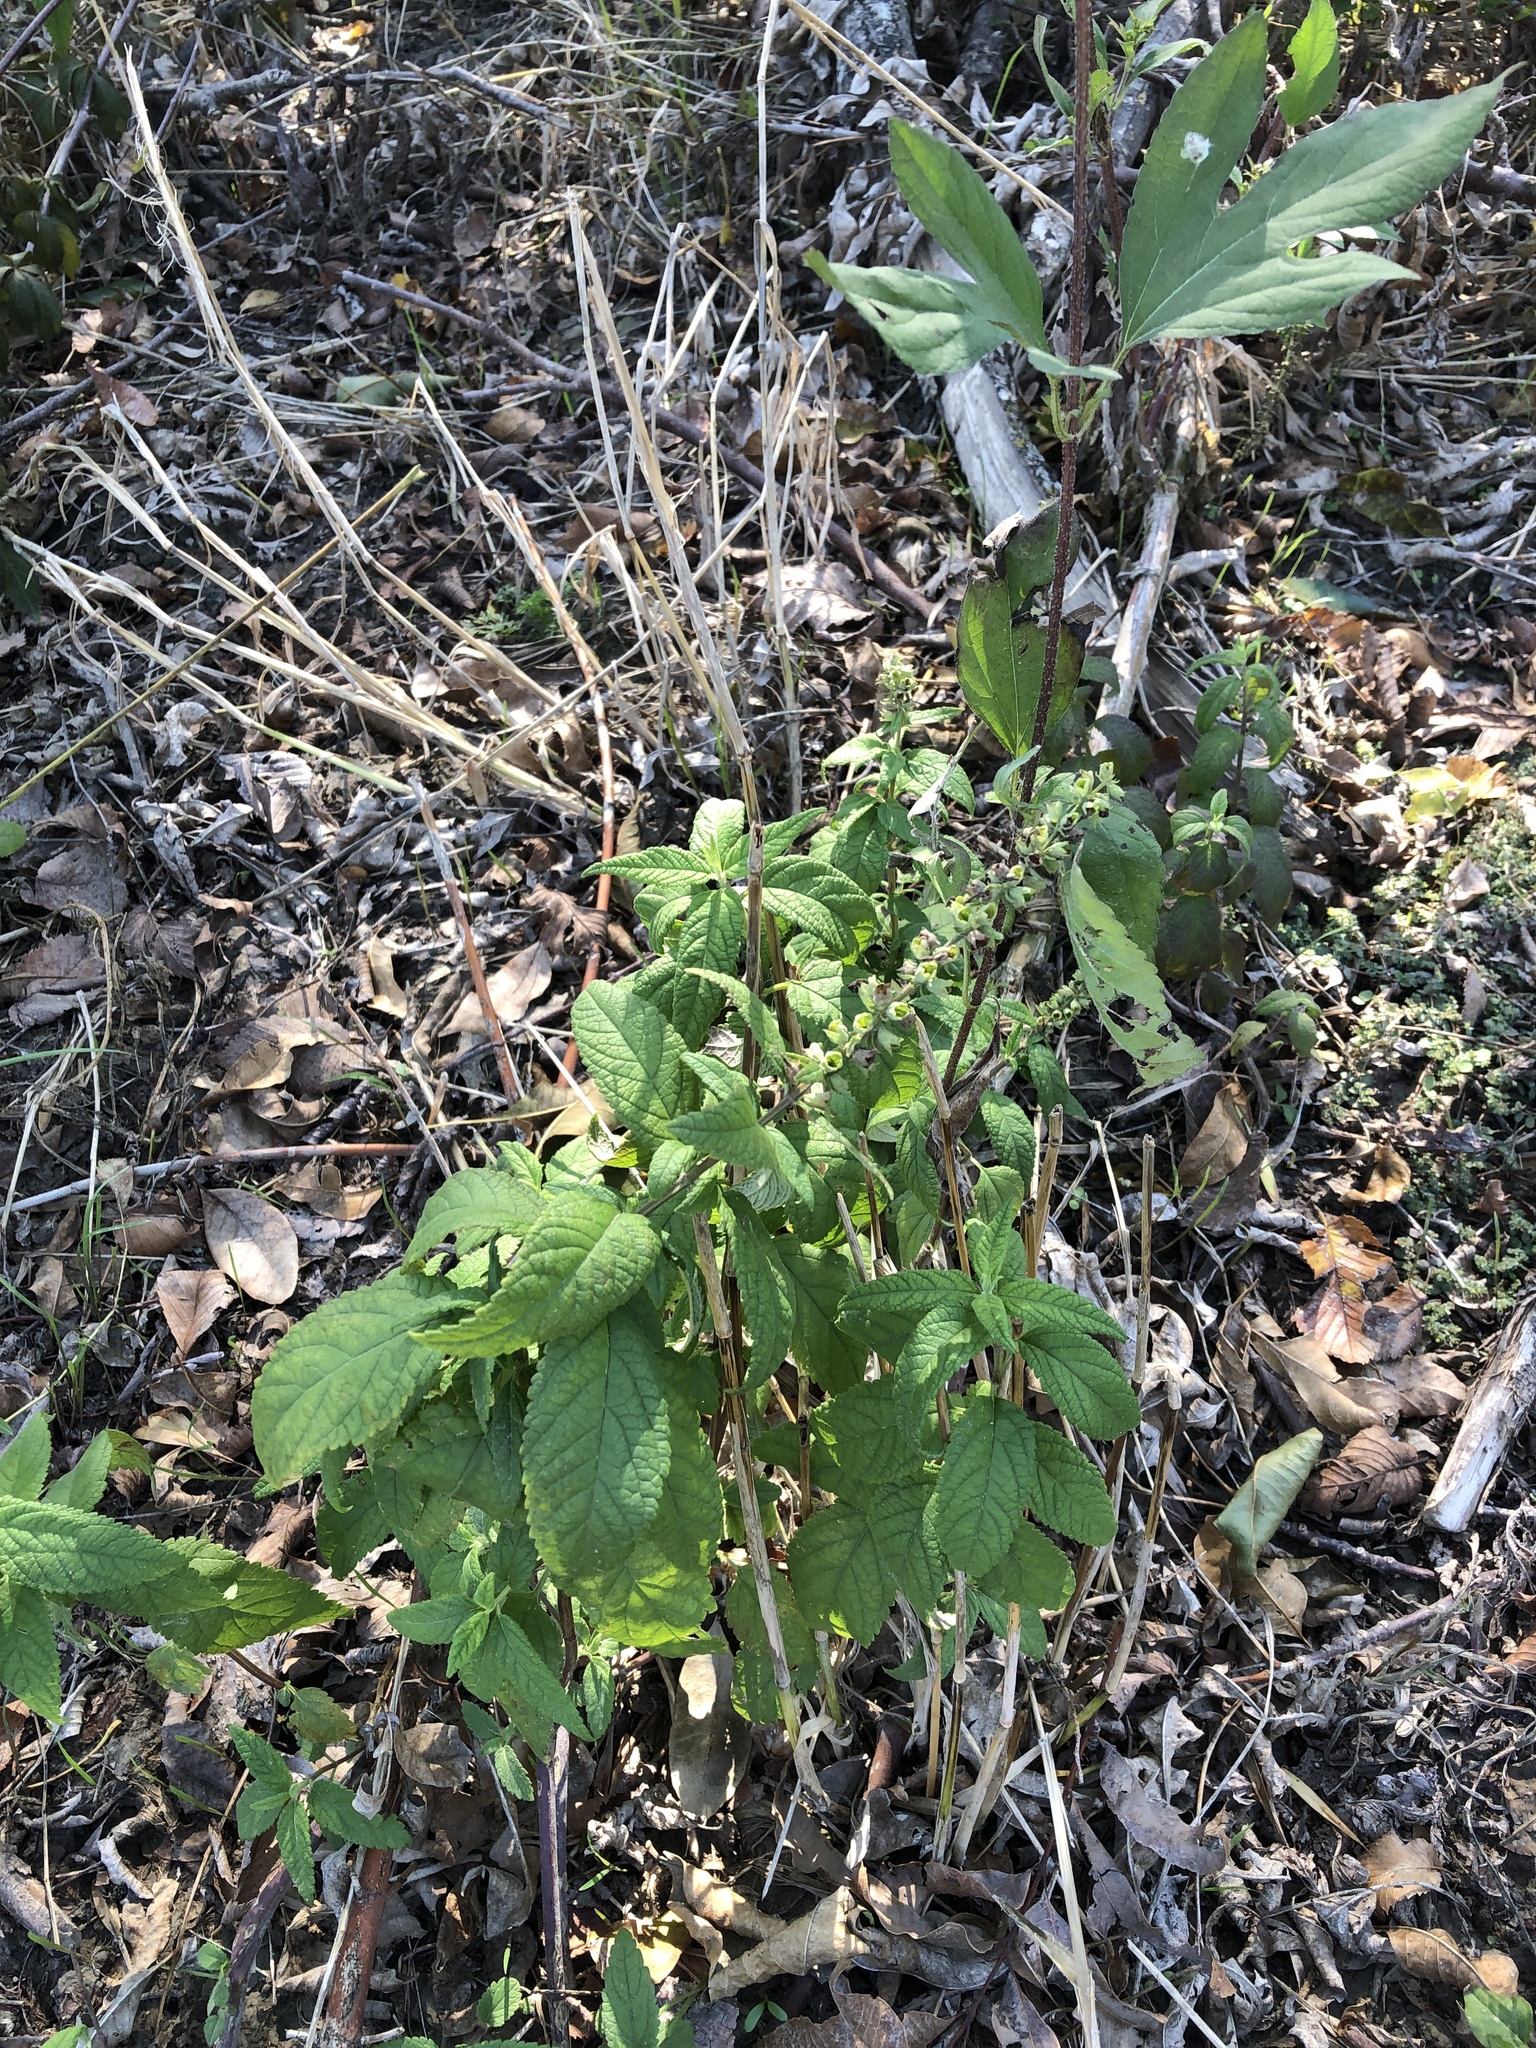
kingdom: Plantae
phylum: Tracheophyta
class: Magnoliopsida
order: Lamiales
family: Lamiaceae
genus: Teucrium
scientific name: Teucrium canadense
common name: American germander
